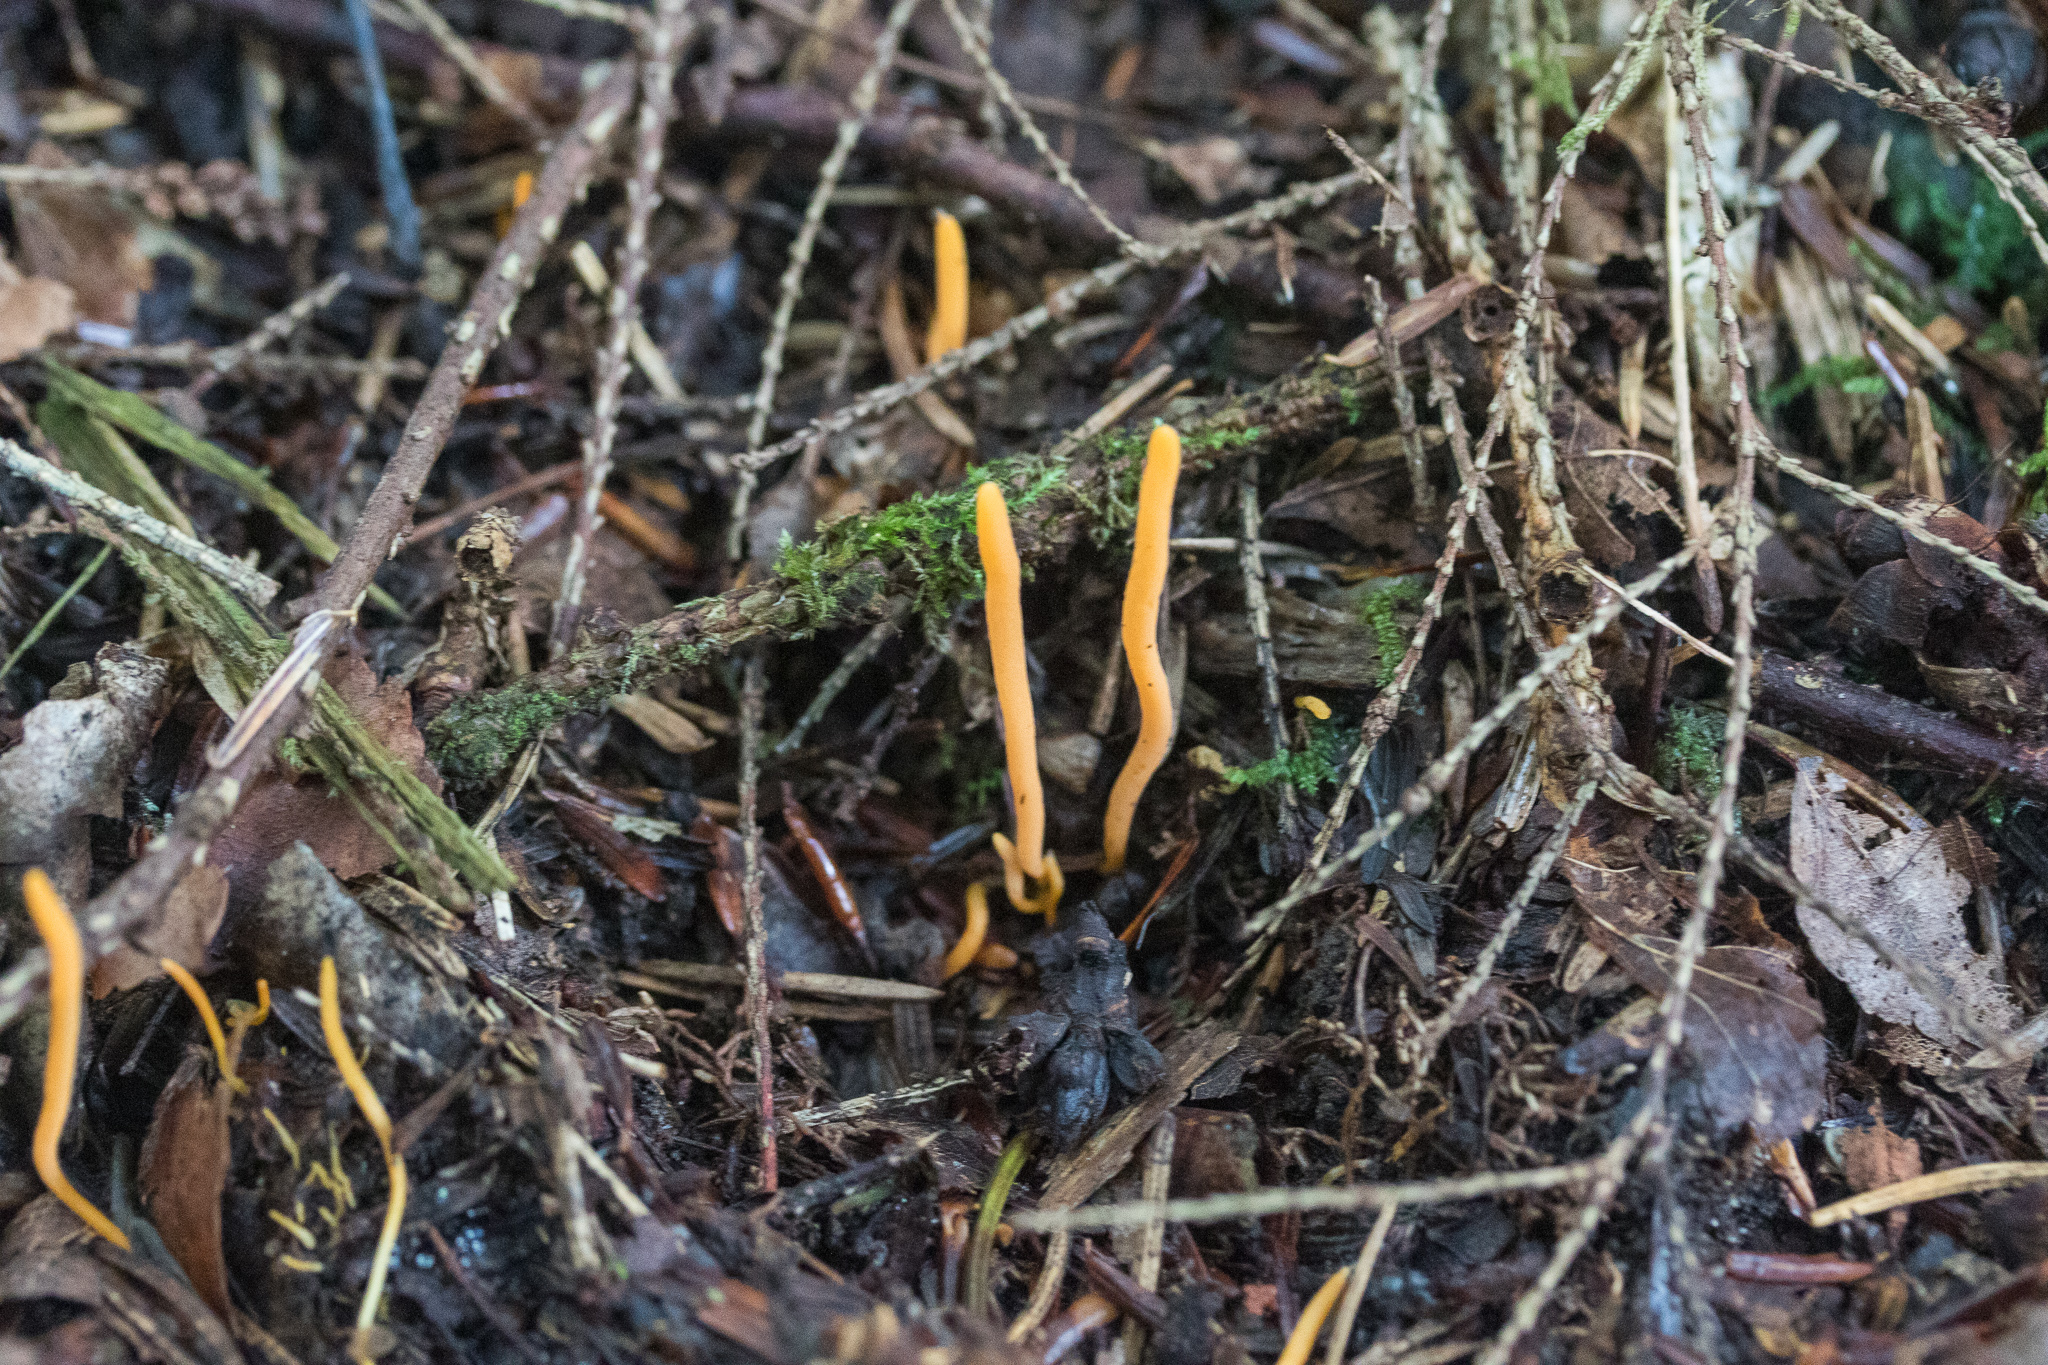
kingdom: Fungi
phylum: Basidiomycota
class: Agaricomycetes
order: Agaricales
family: Clavariaceae
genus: Clavulinopsis
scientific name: Clavulinopsis laeticolor
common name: Handsome club
